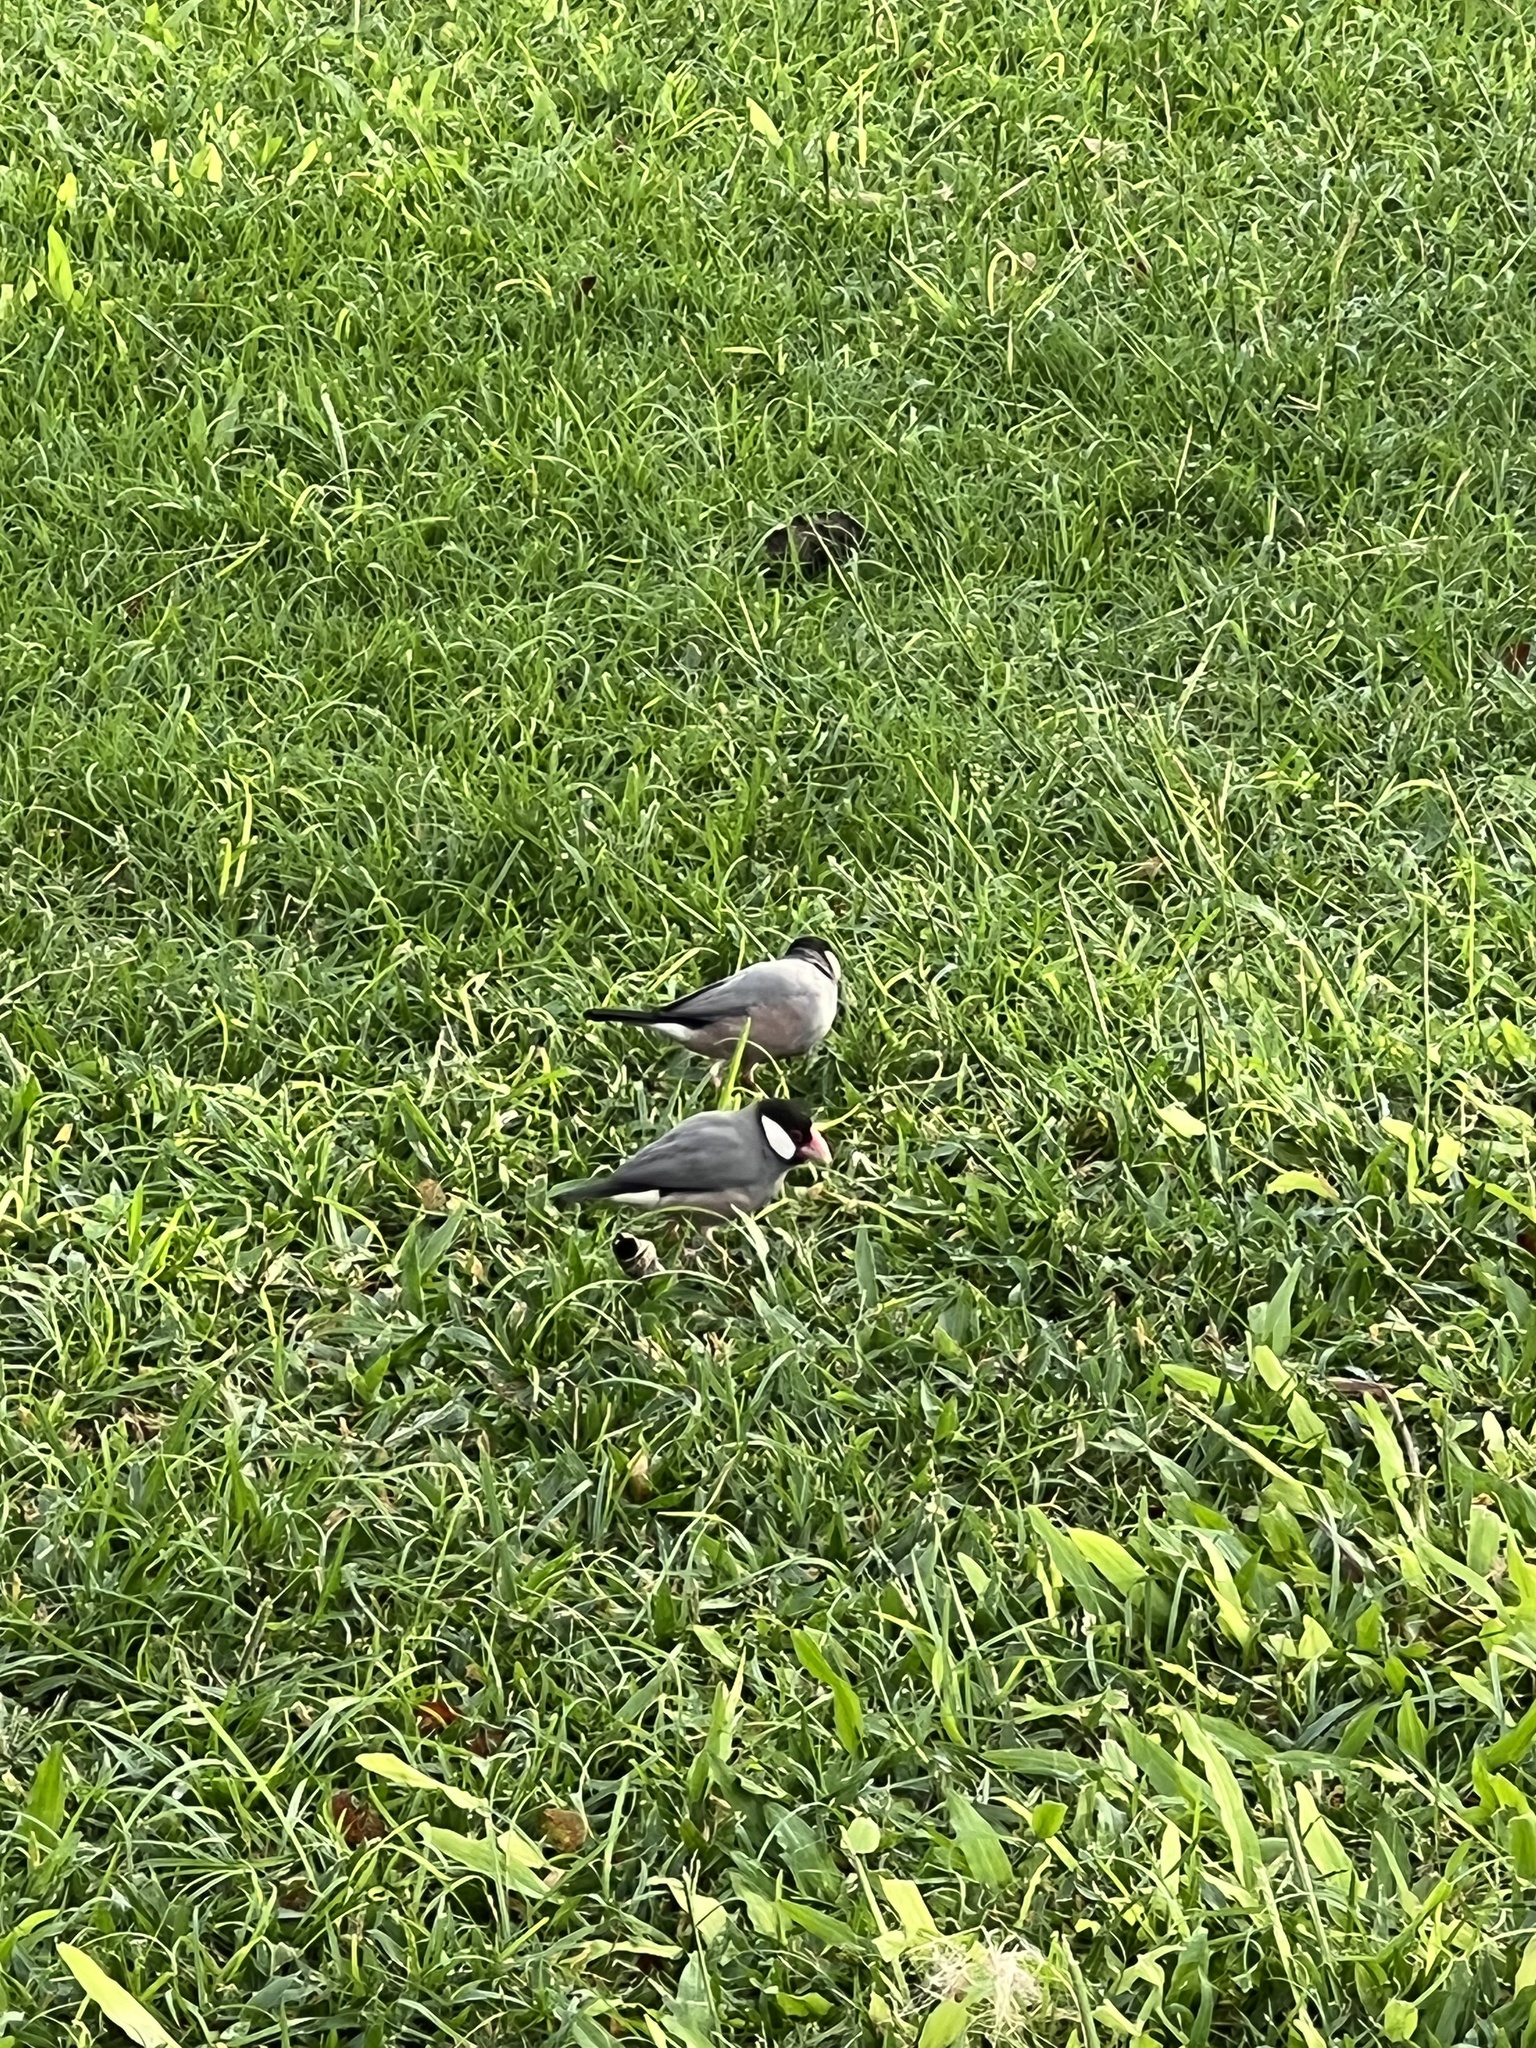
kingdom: Animalia
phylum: Chordata
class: Aves
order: Passeriformes
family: Estrildidae
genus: Lonchura
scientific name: Lonchura oryzivora
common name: Java sparrow
